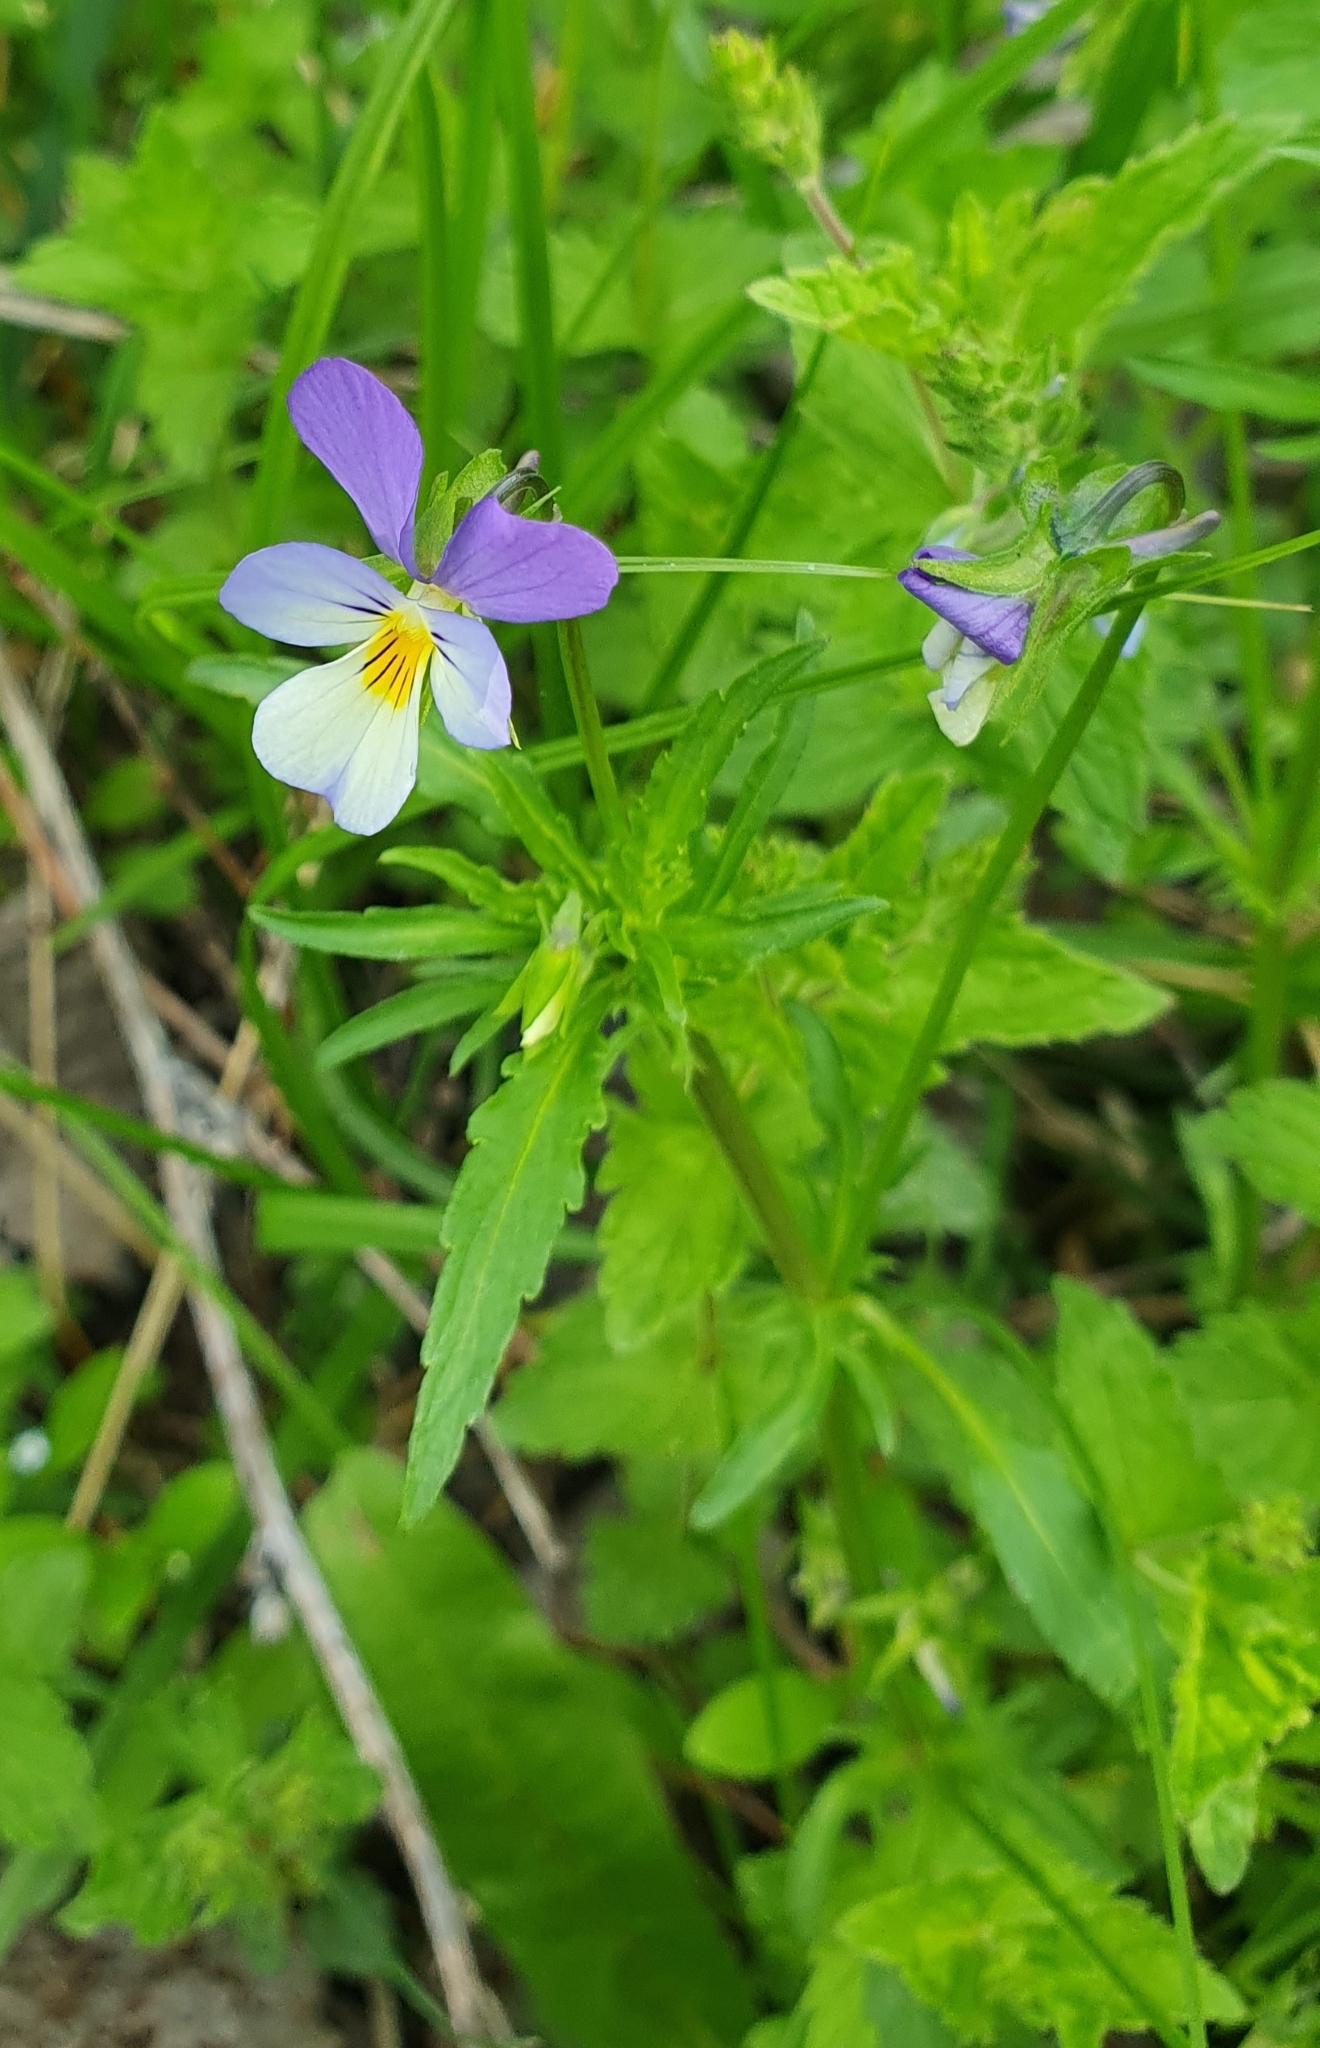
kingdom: Plantae
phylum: Tracheophyta
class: Magnoliopsida
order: Malpighiales
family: Violaceae
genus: Viola
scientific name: Viola tricolor
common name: Pansy
